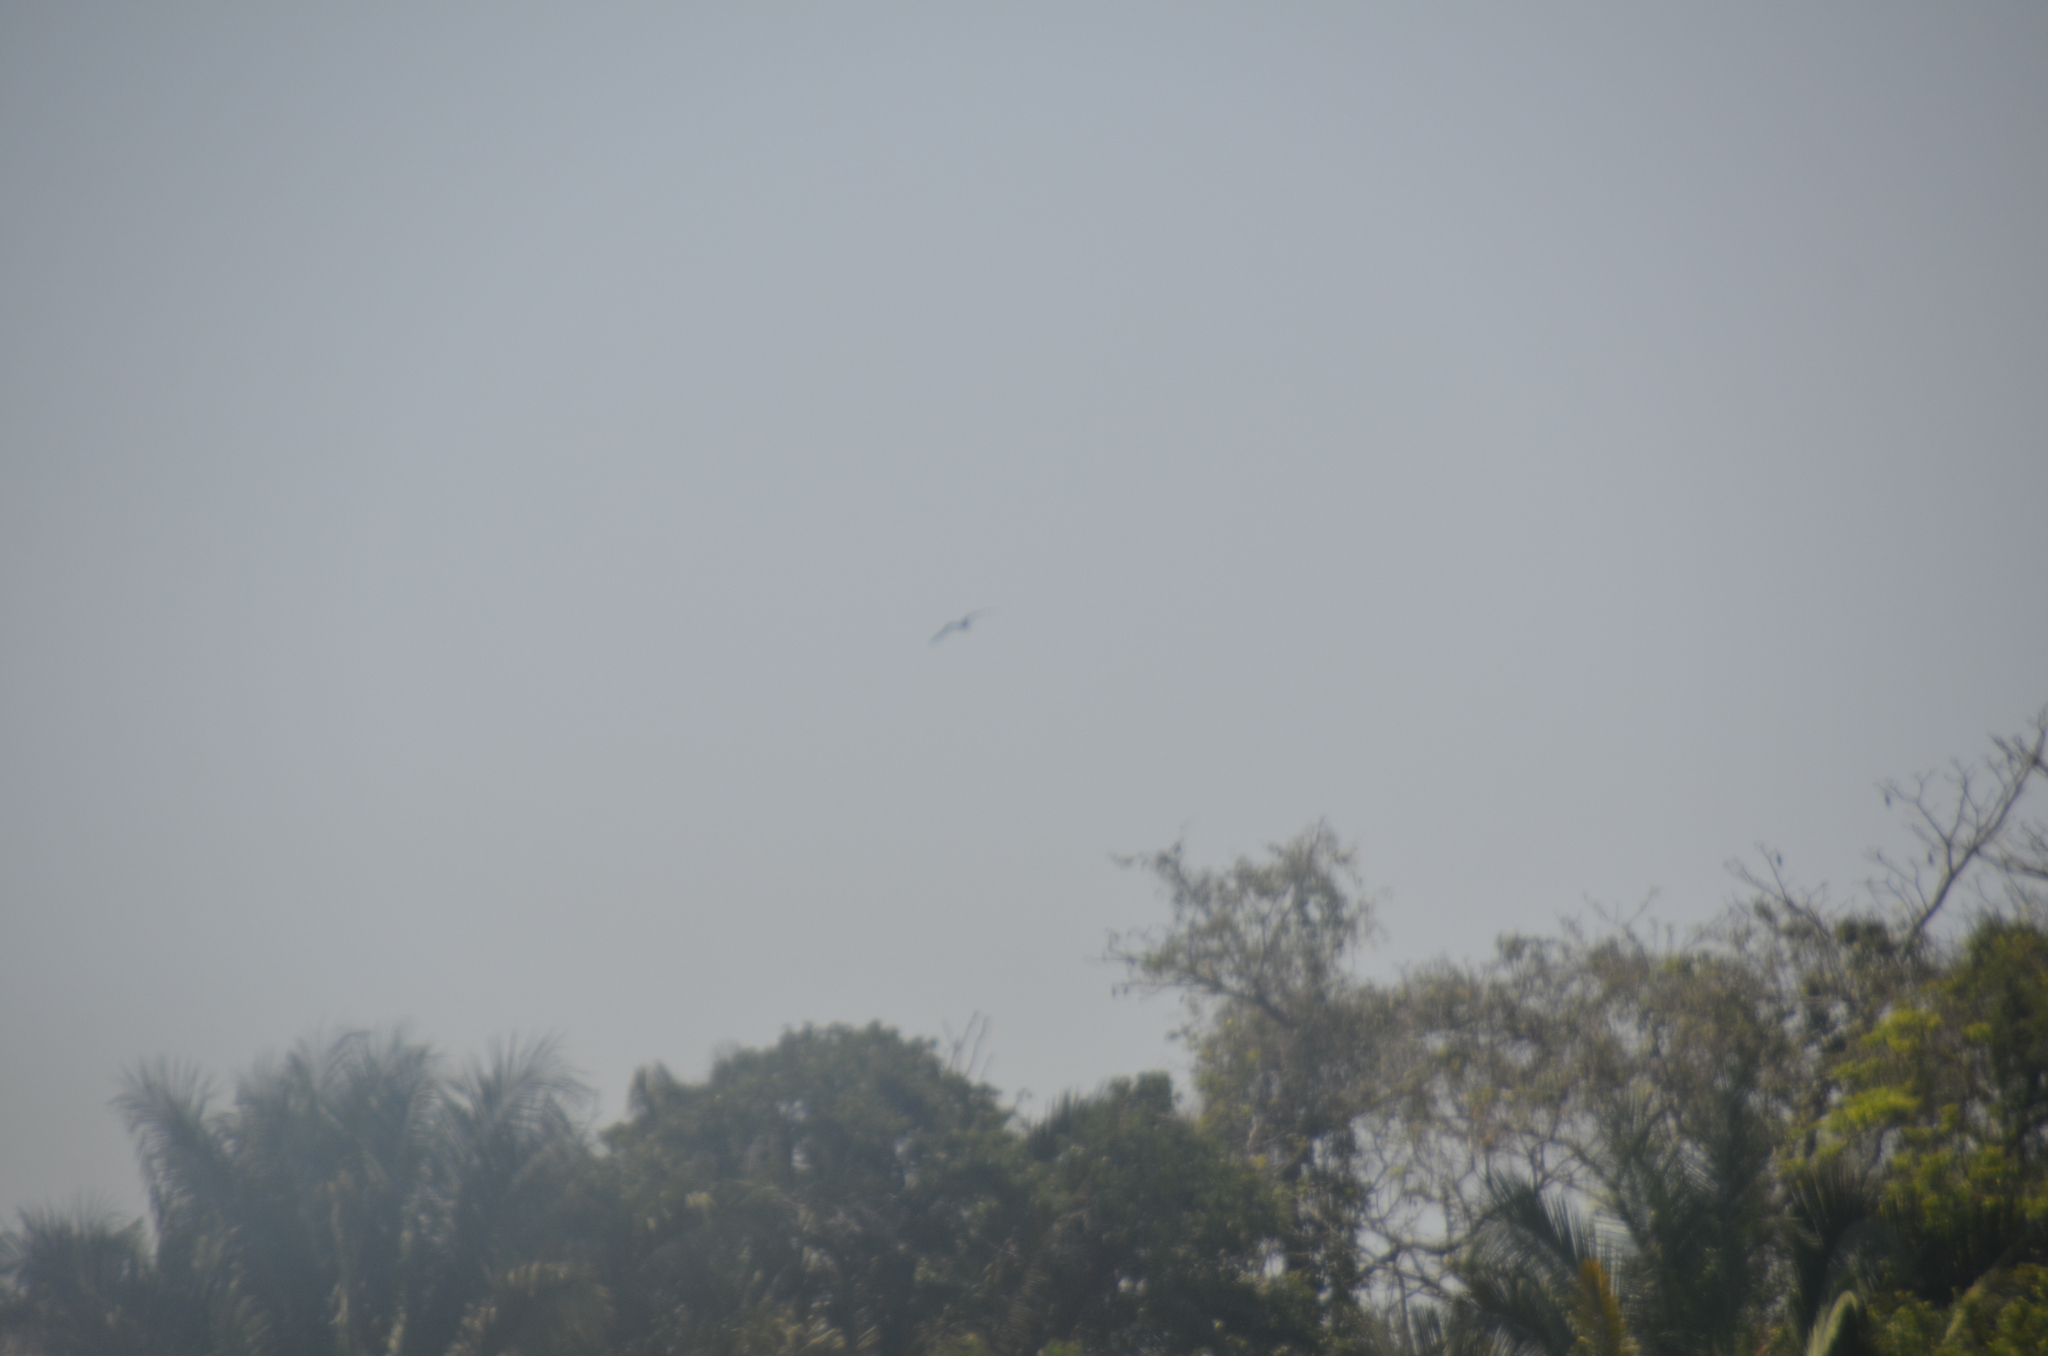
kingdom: Animalia
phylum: Chordata
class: Aves
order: Suliformes
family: Fregatidae
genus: Fregata
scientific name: Fregata magnificens
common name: Magnificent frigatebird
